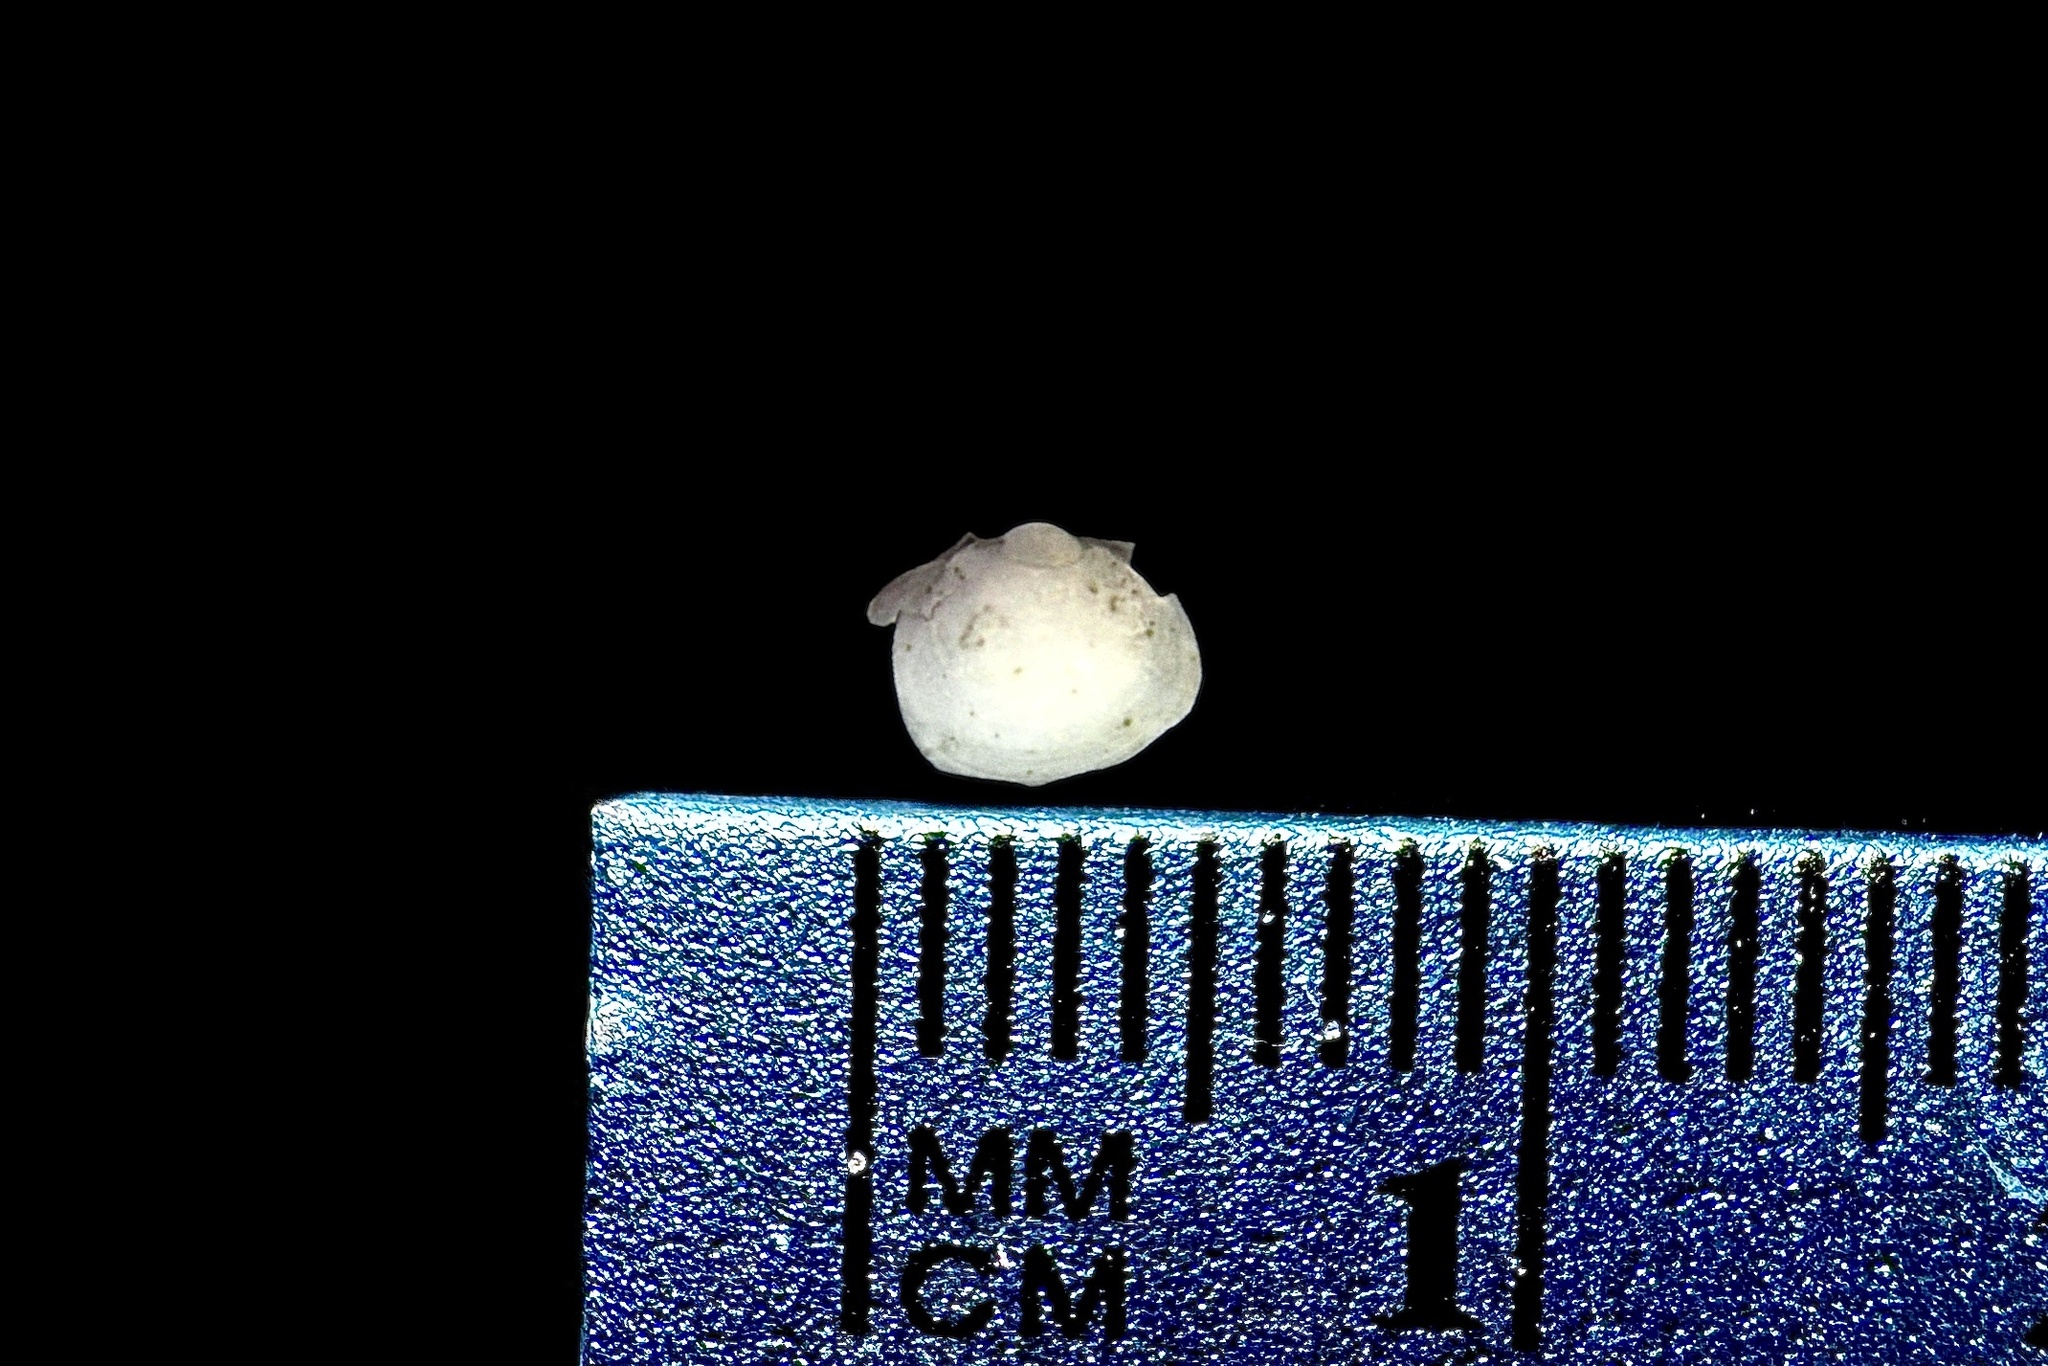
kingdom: Animalia
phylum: Mollusca
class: Bivalvia
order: Sphaeriida
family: Sphaeriidae
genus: Musculium
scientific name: Musculium lacustre
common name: Lake fingernailclam
